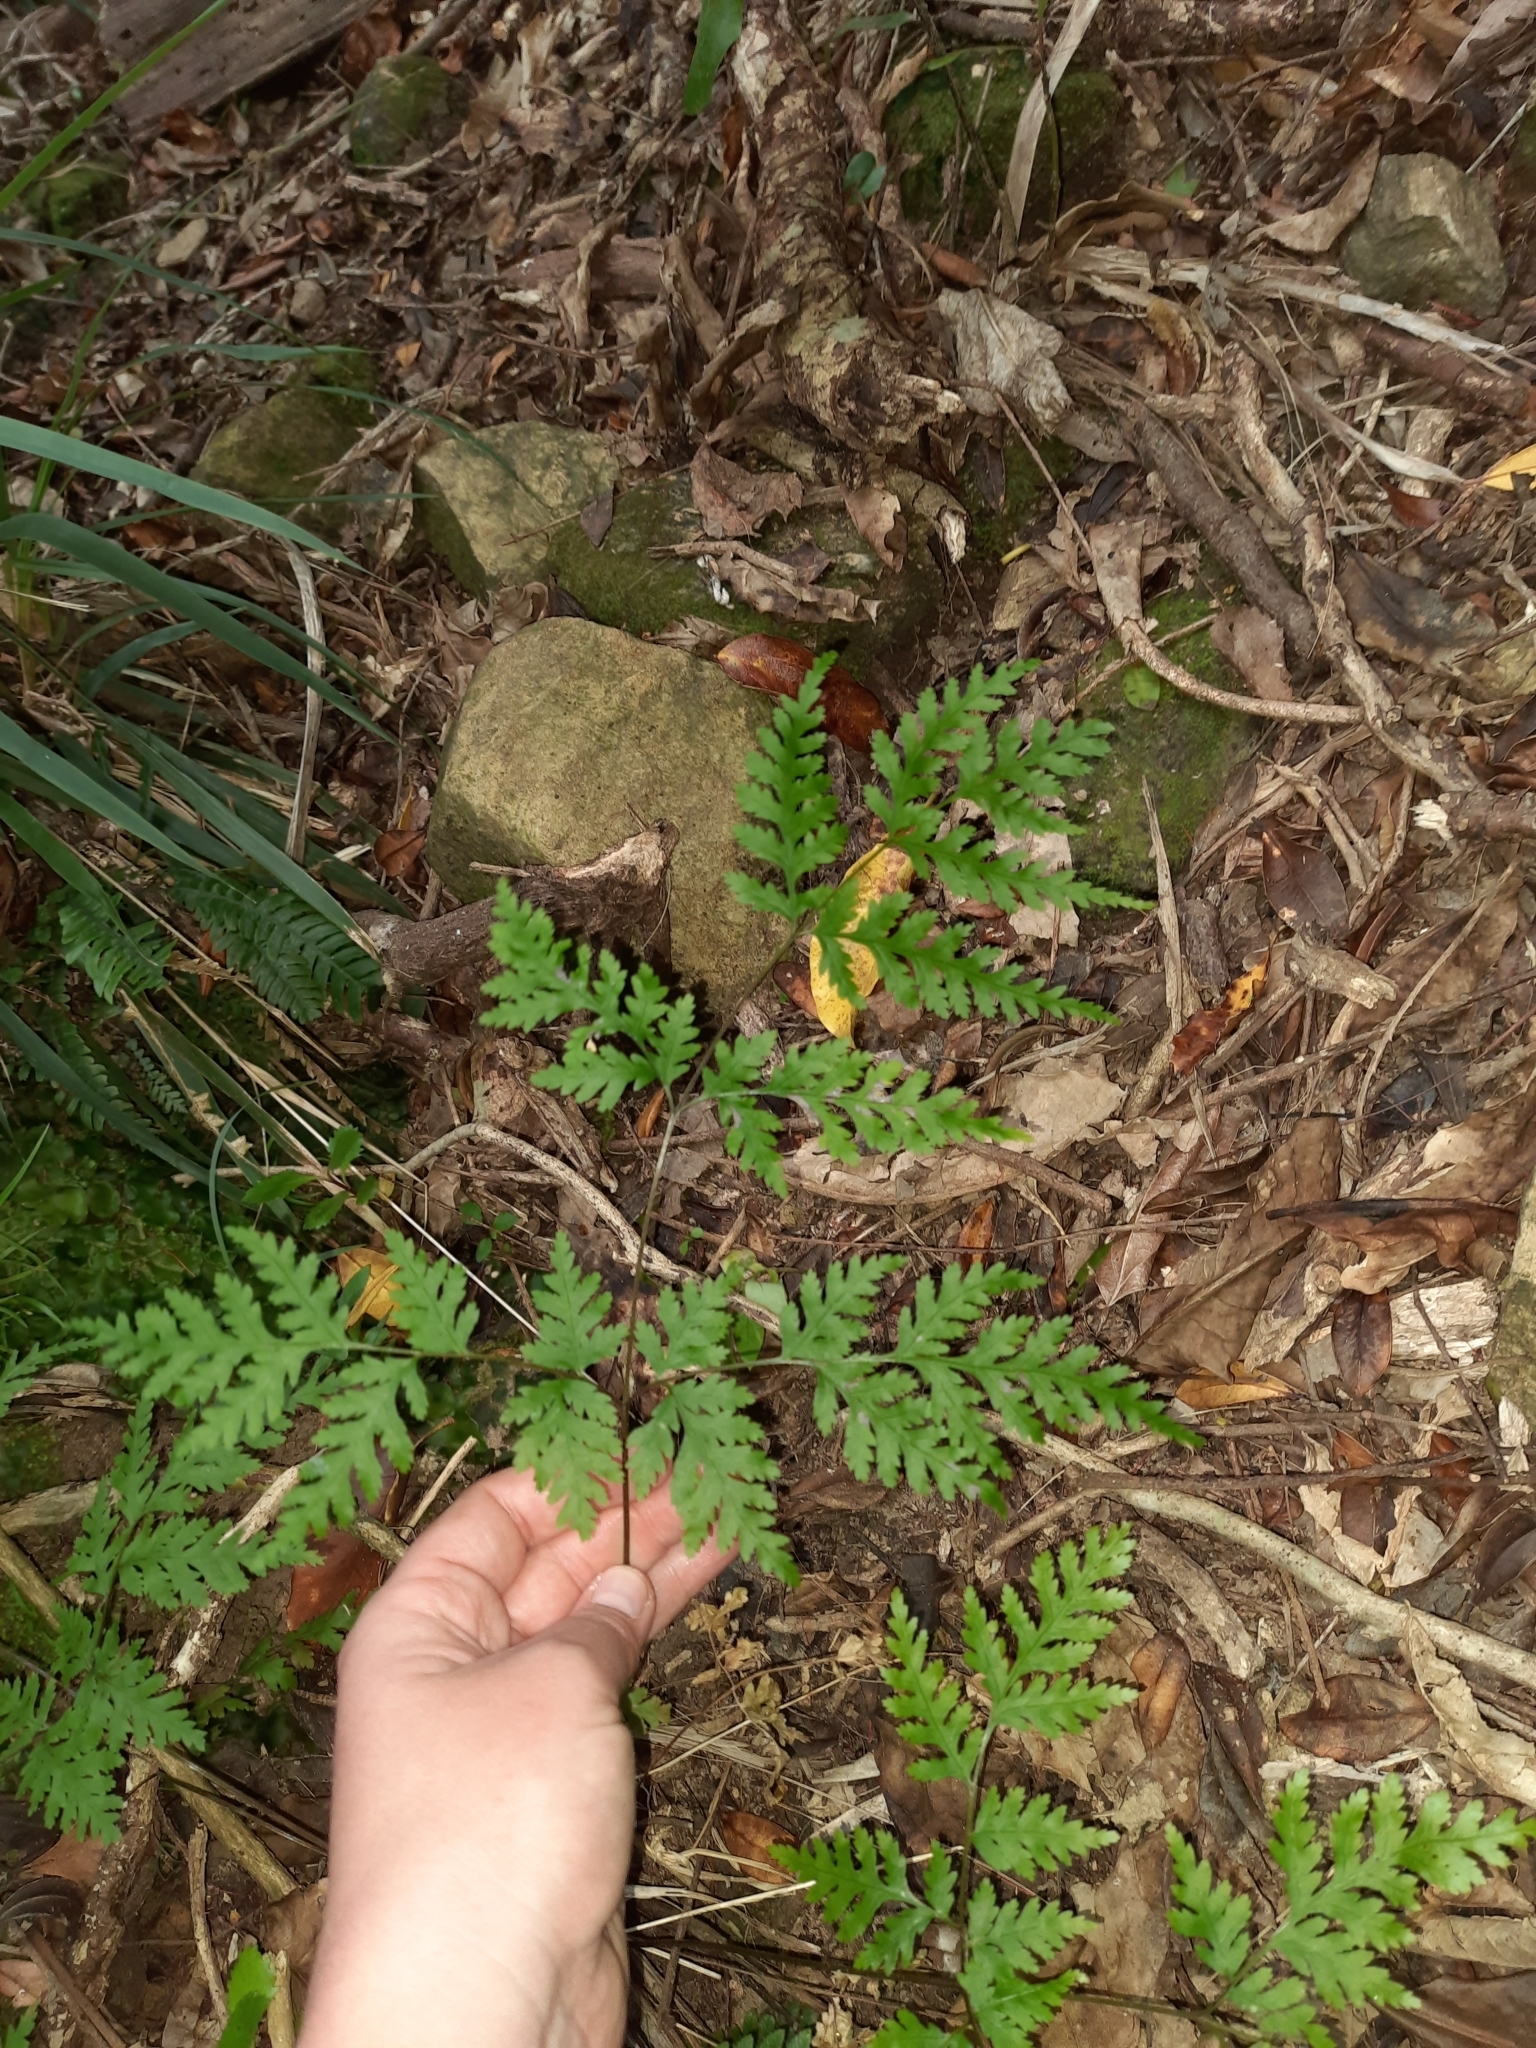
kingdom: Plantae
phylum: Tracheophyta
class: Polypodiopsida
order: Polypodiales
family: Pteridaceae
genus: Pteris
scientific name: Pteris macilenta
